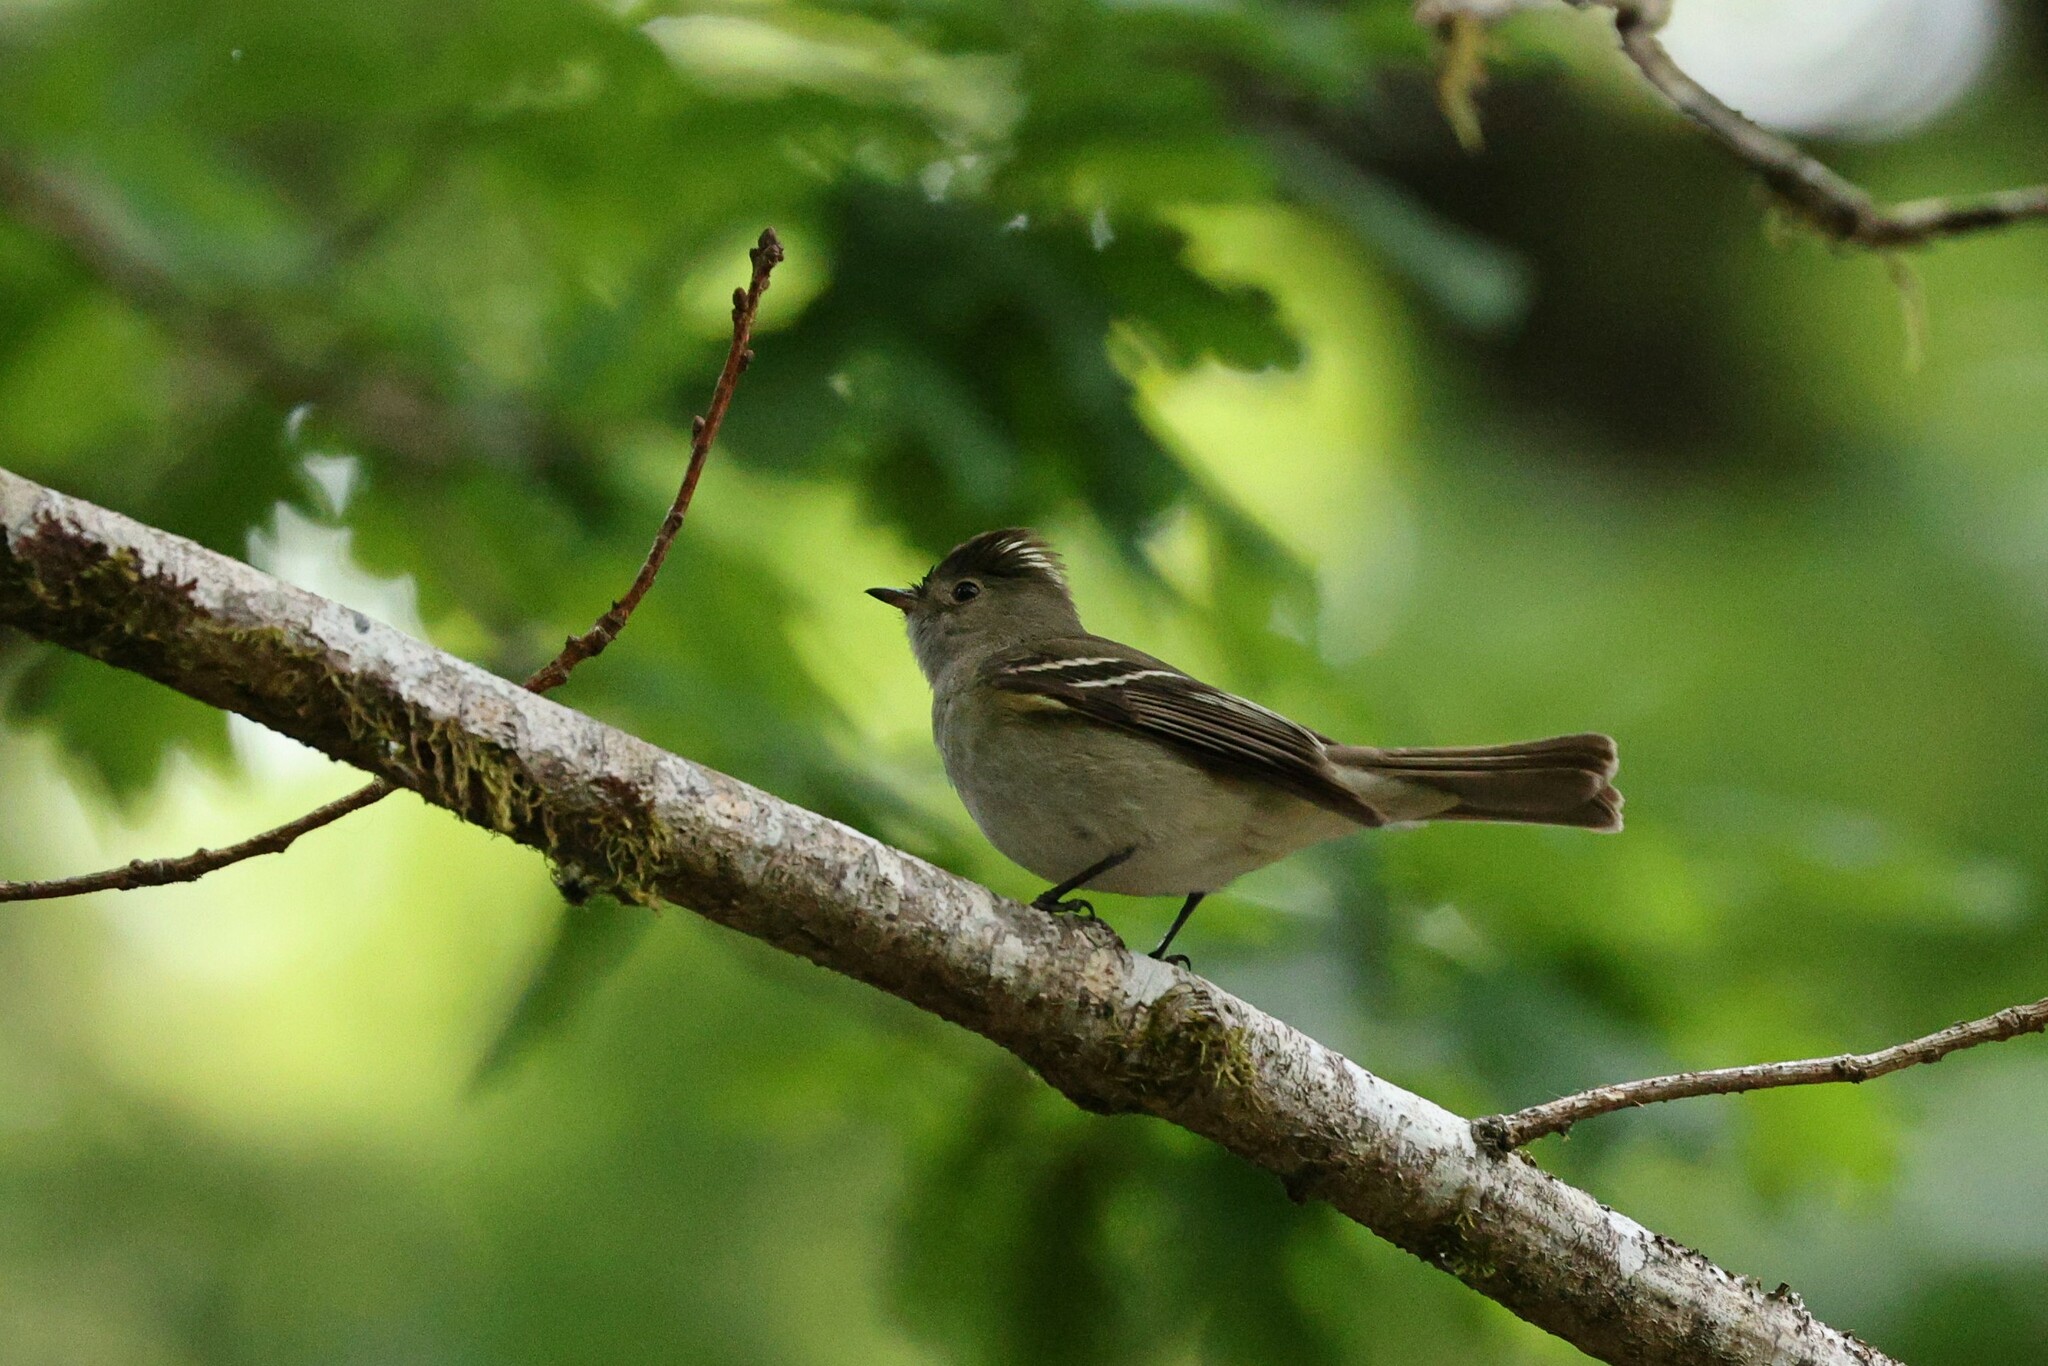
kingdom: Animalia
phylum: Chordata
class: Aves
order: Passeriformes
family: Tyrannidae
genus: Elaenia
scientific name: Elaenia albiceps
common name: White-crested elaenia
